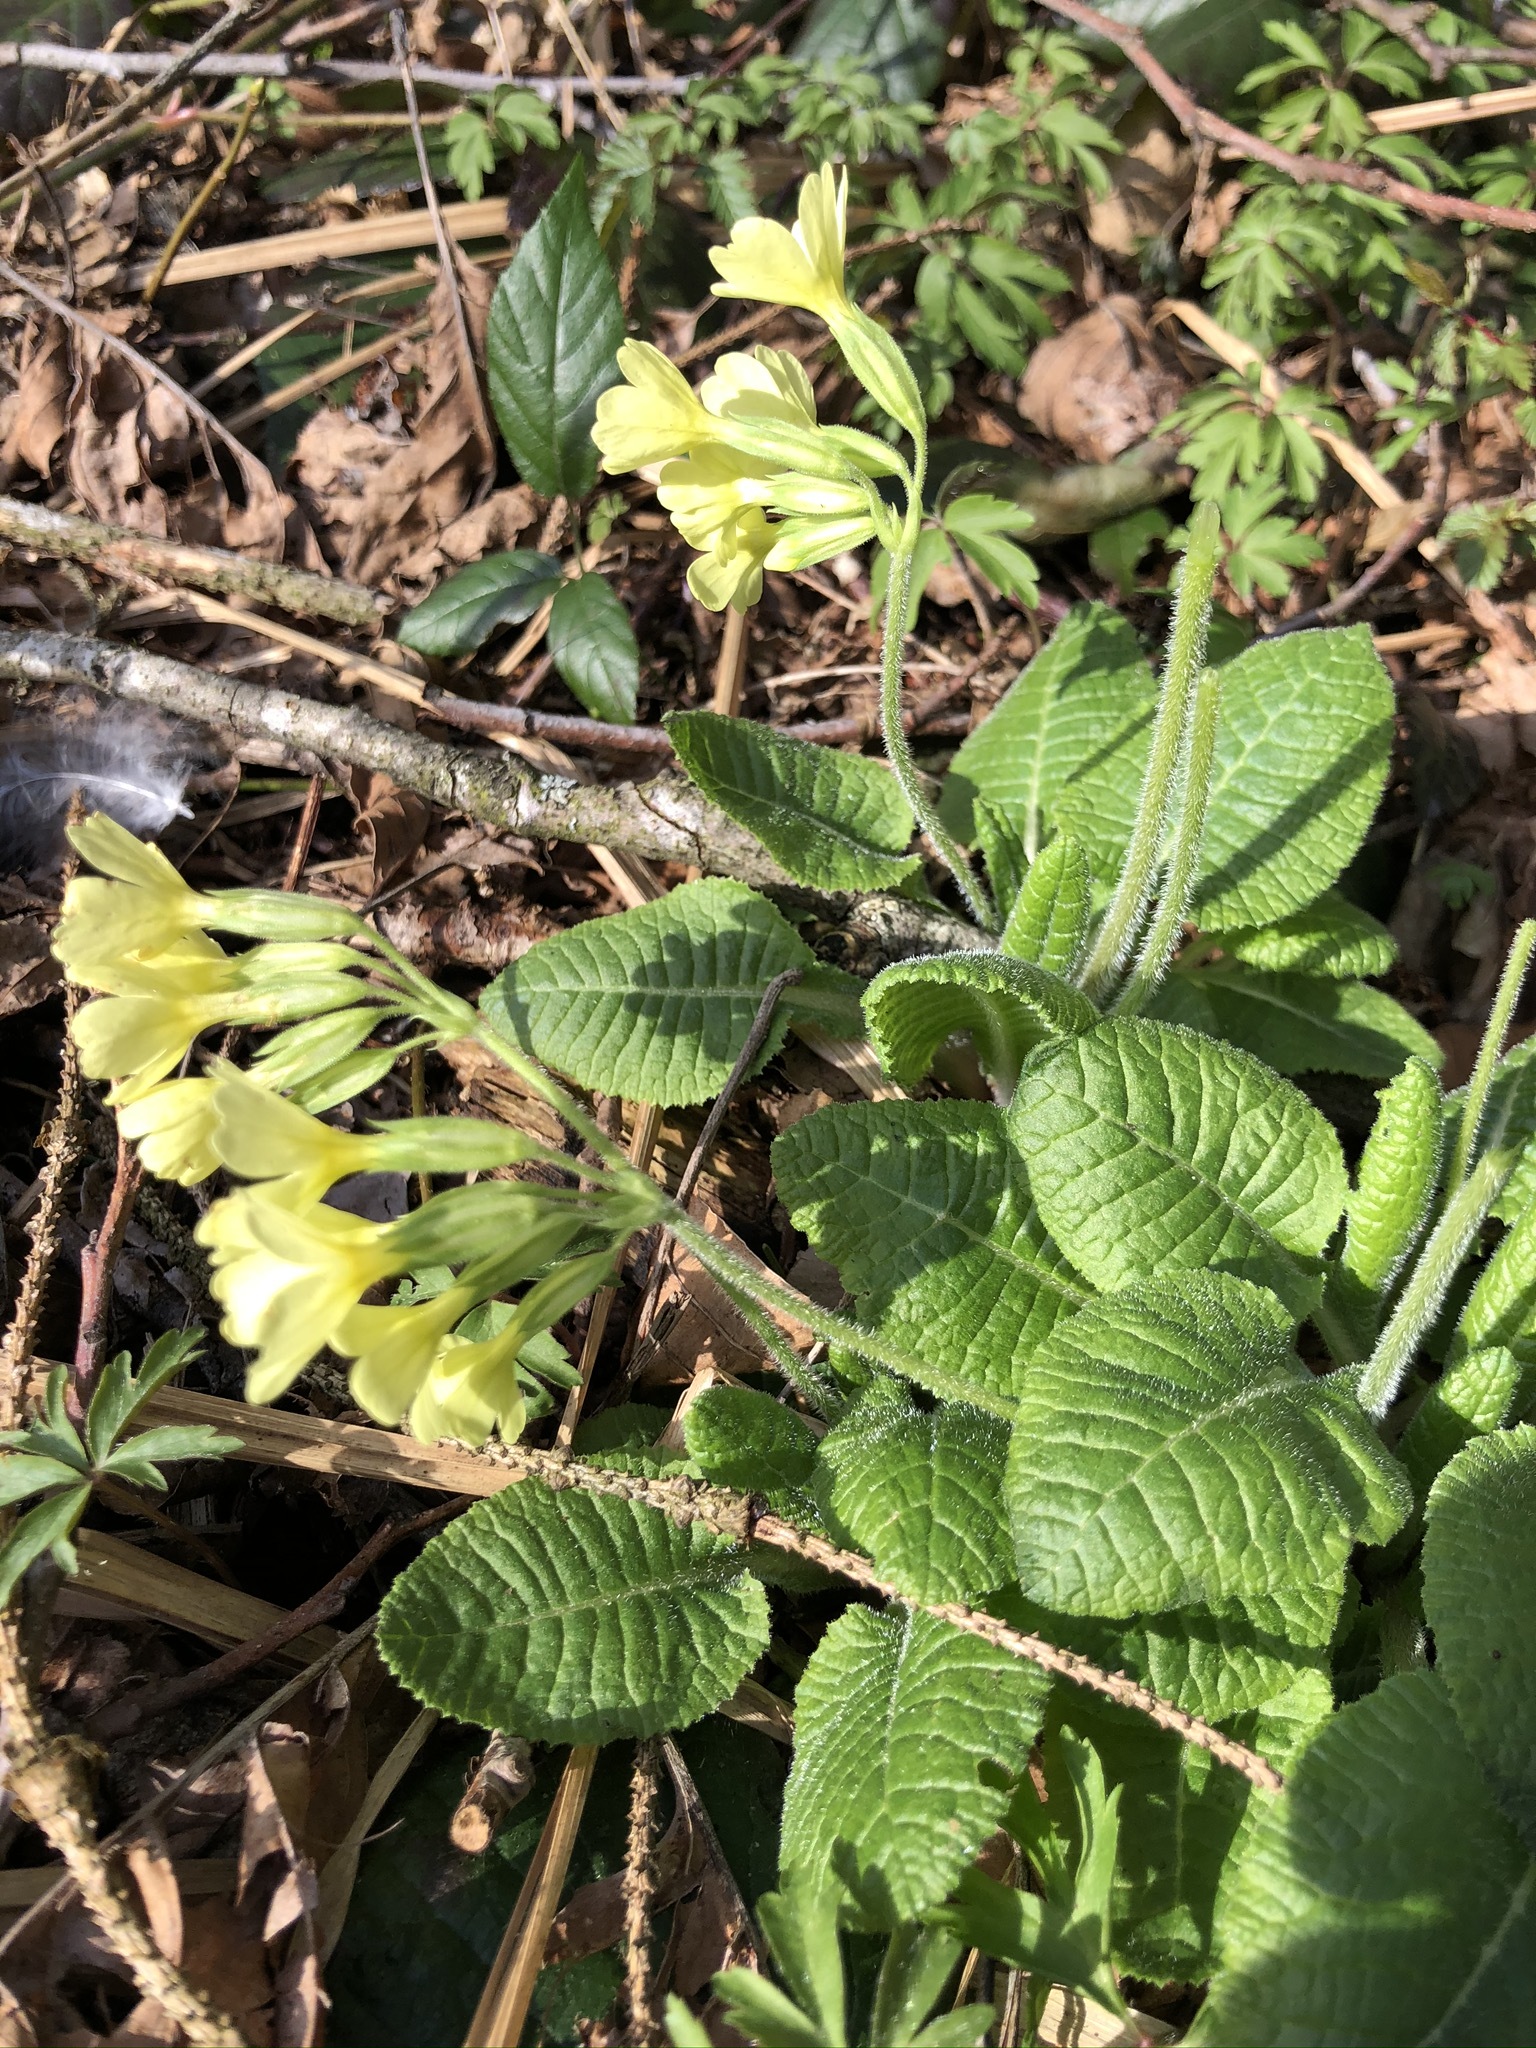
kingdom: Plantae
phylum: Tracheophyta
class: Magnoliopsida
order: Ericales
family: Primulaceae
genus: Primula
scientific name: Primula elatior
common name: Oxlip
